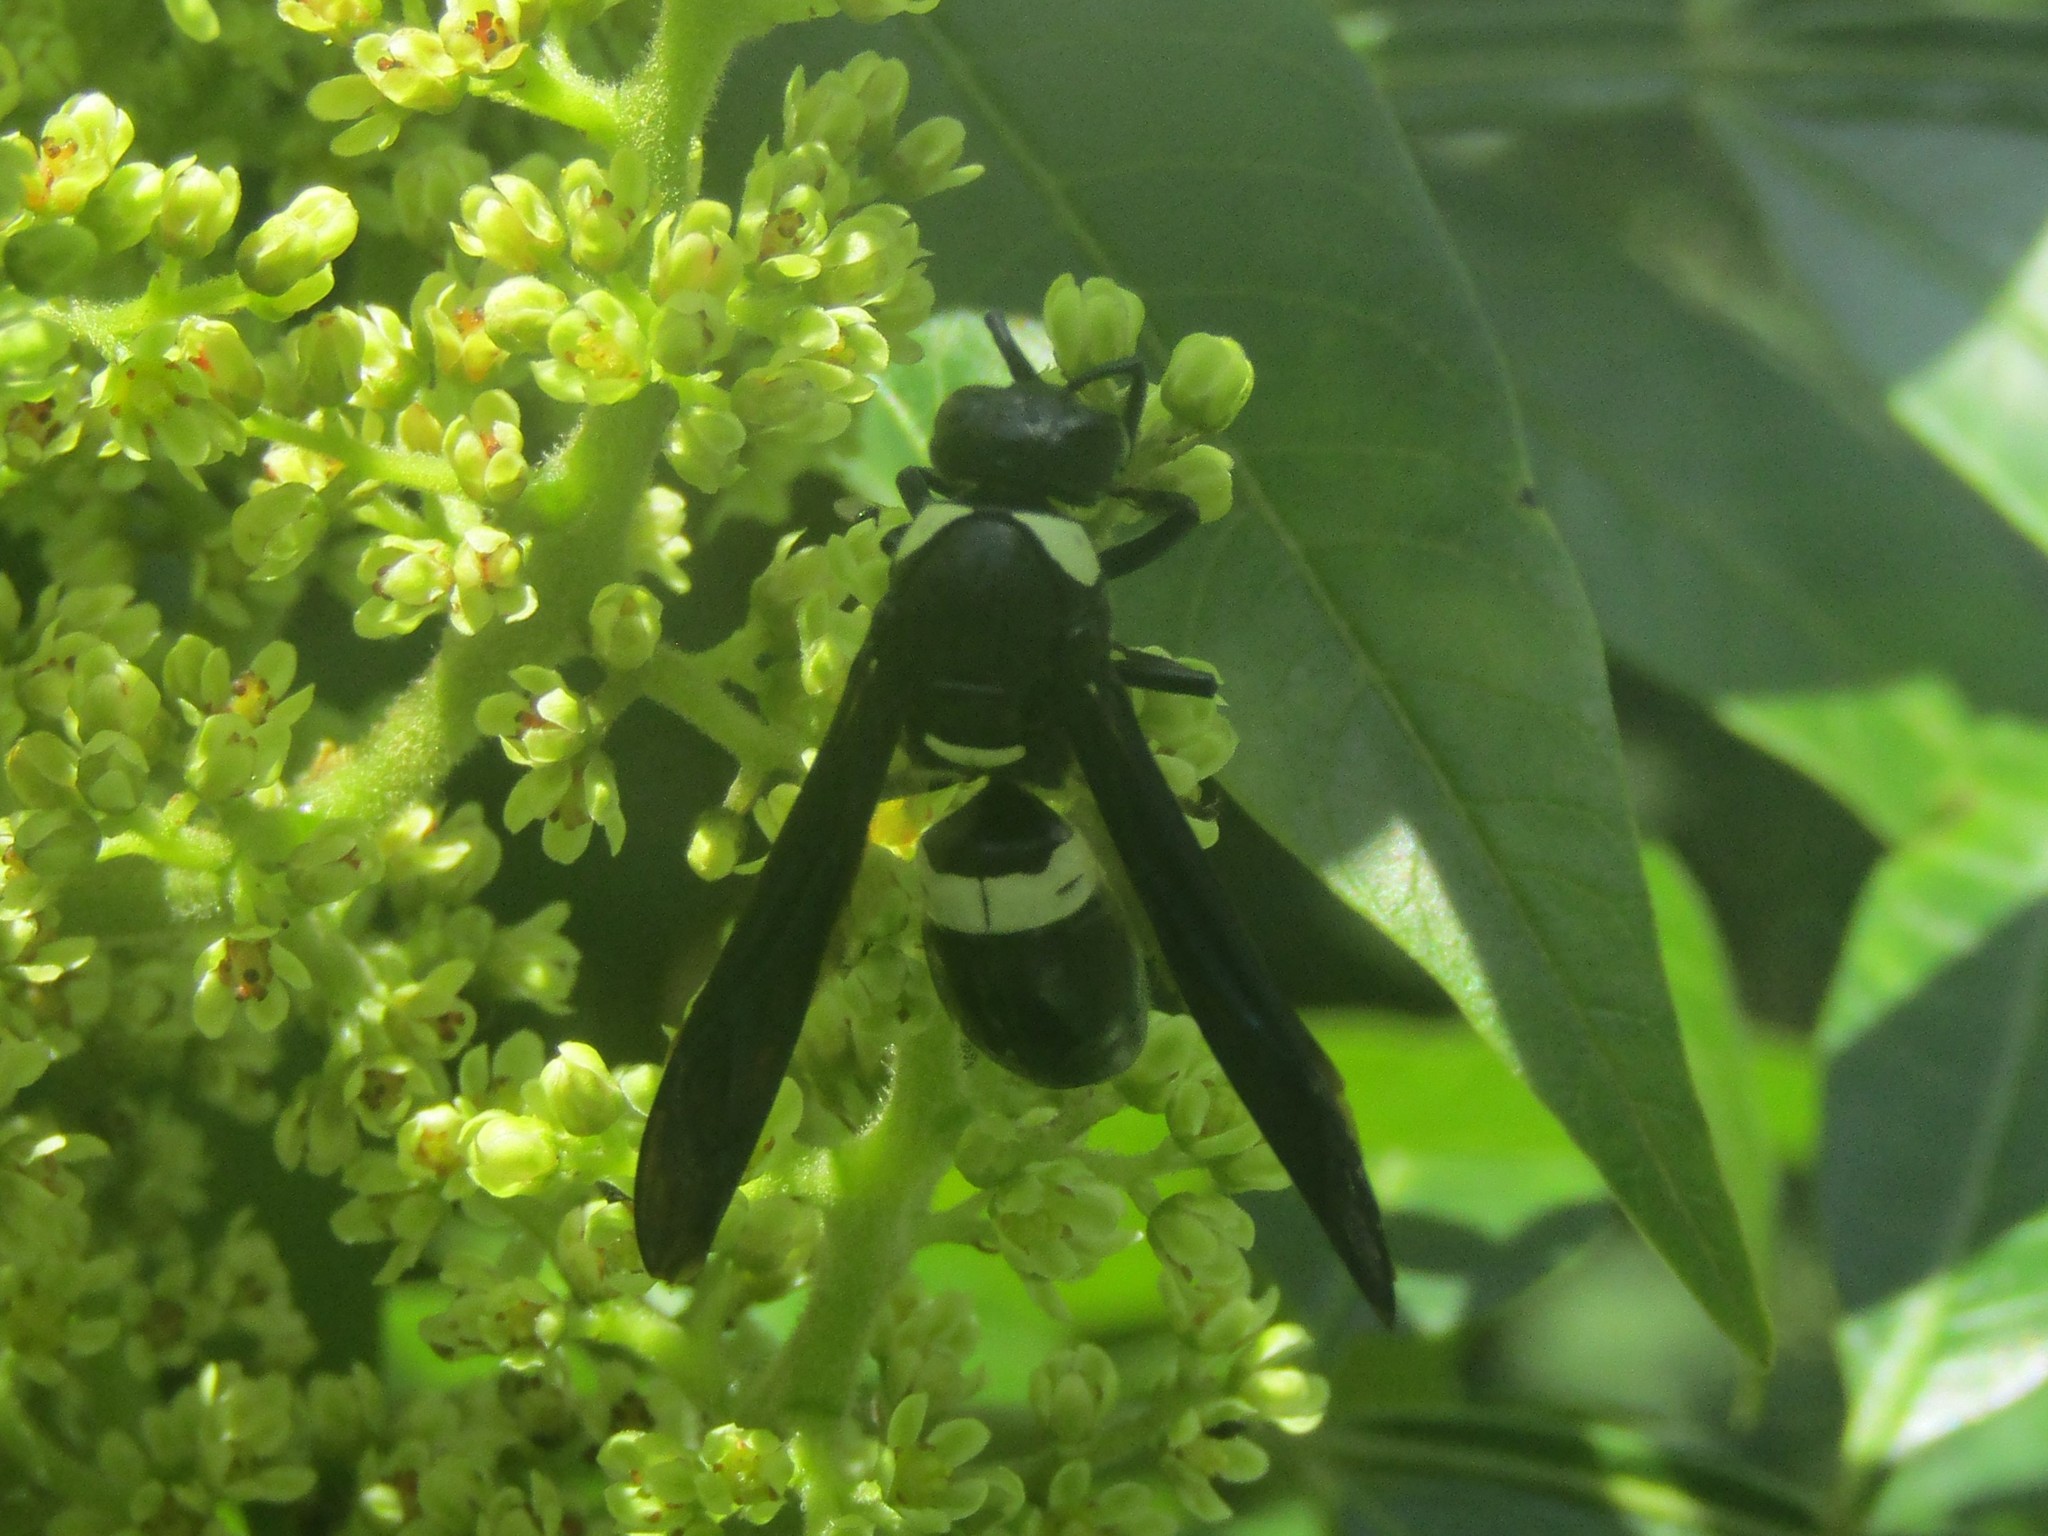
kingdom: Animalia
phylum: Arthropoda
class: Insecta
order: Hymenoptera
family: Eumenidae
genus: Monobia
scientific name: Monobia quadridens
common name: Four-toothed mason wasp
